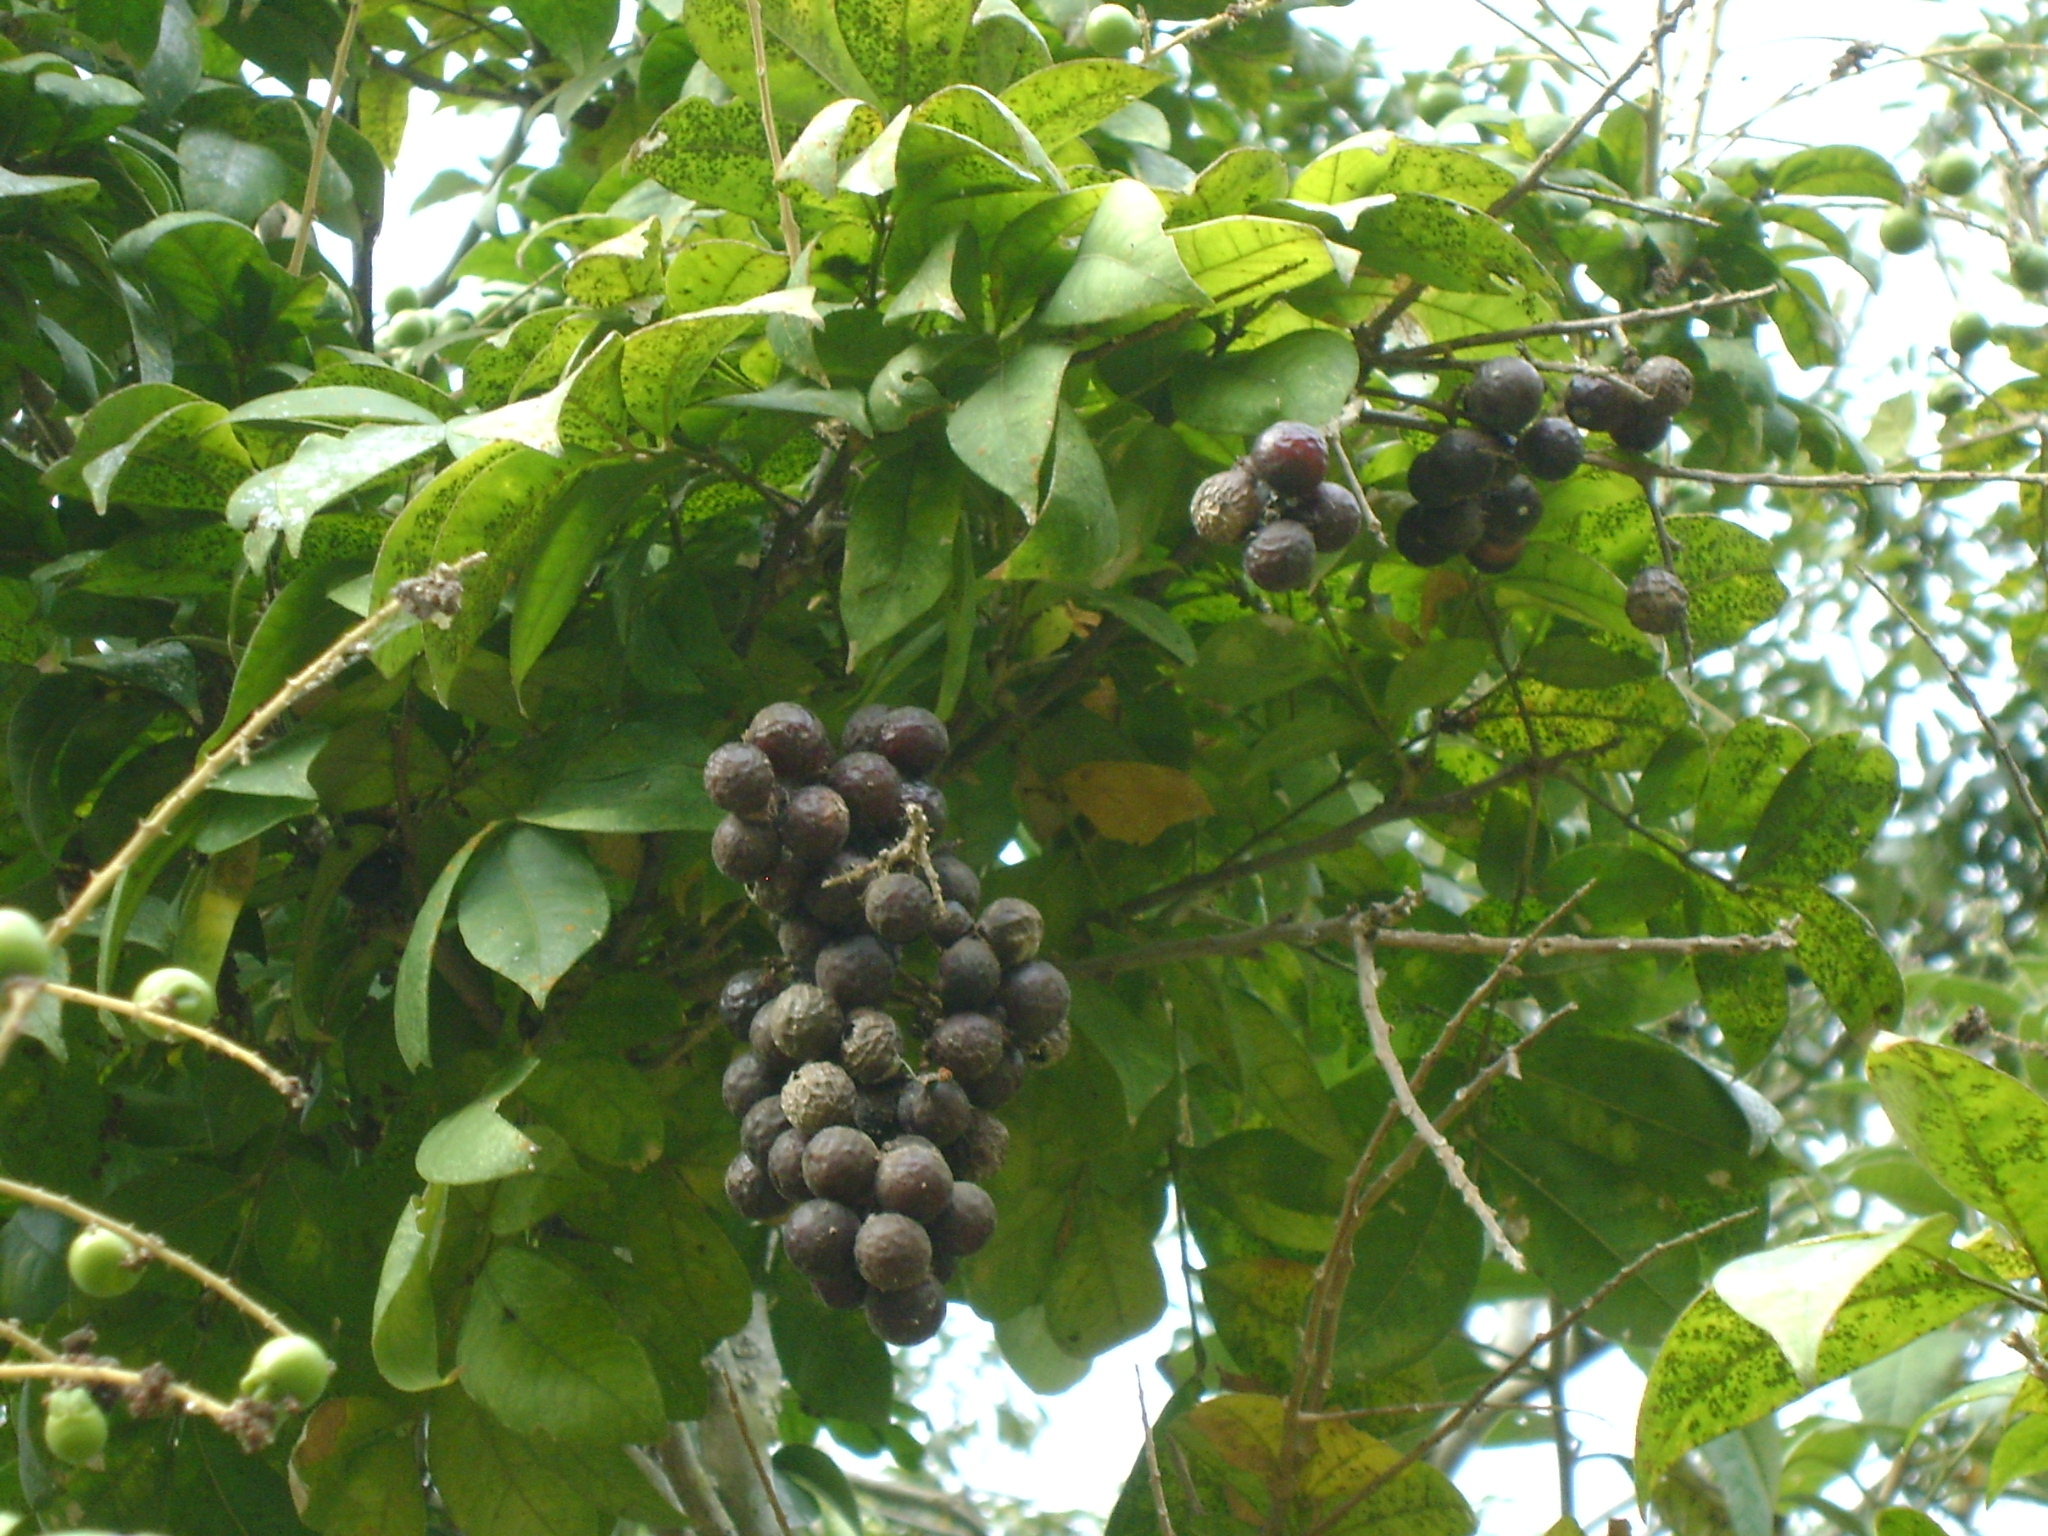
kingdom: Plantae
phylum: Tracheophyta
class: Magnoliopsida
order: Sapindales
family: Sapindaceae
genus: Sapindus
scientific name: Sapindus saponaria
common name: Wingleaf soapberry
